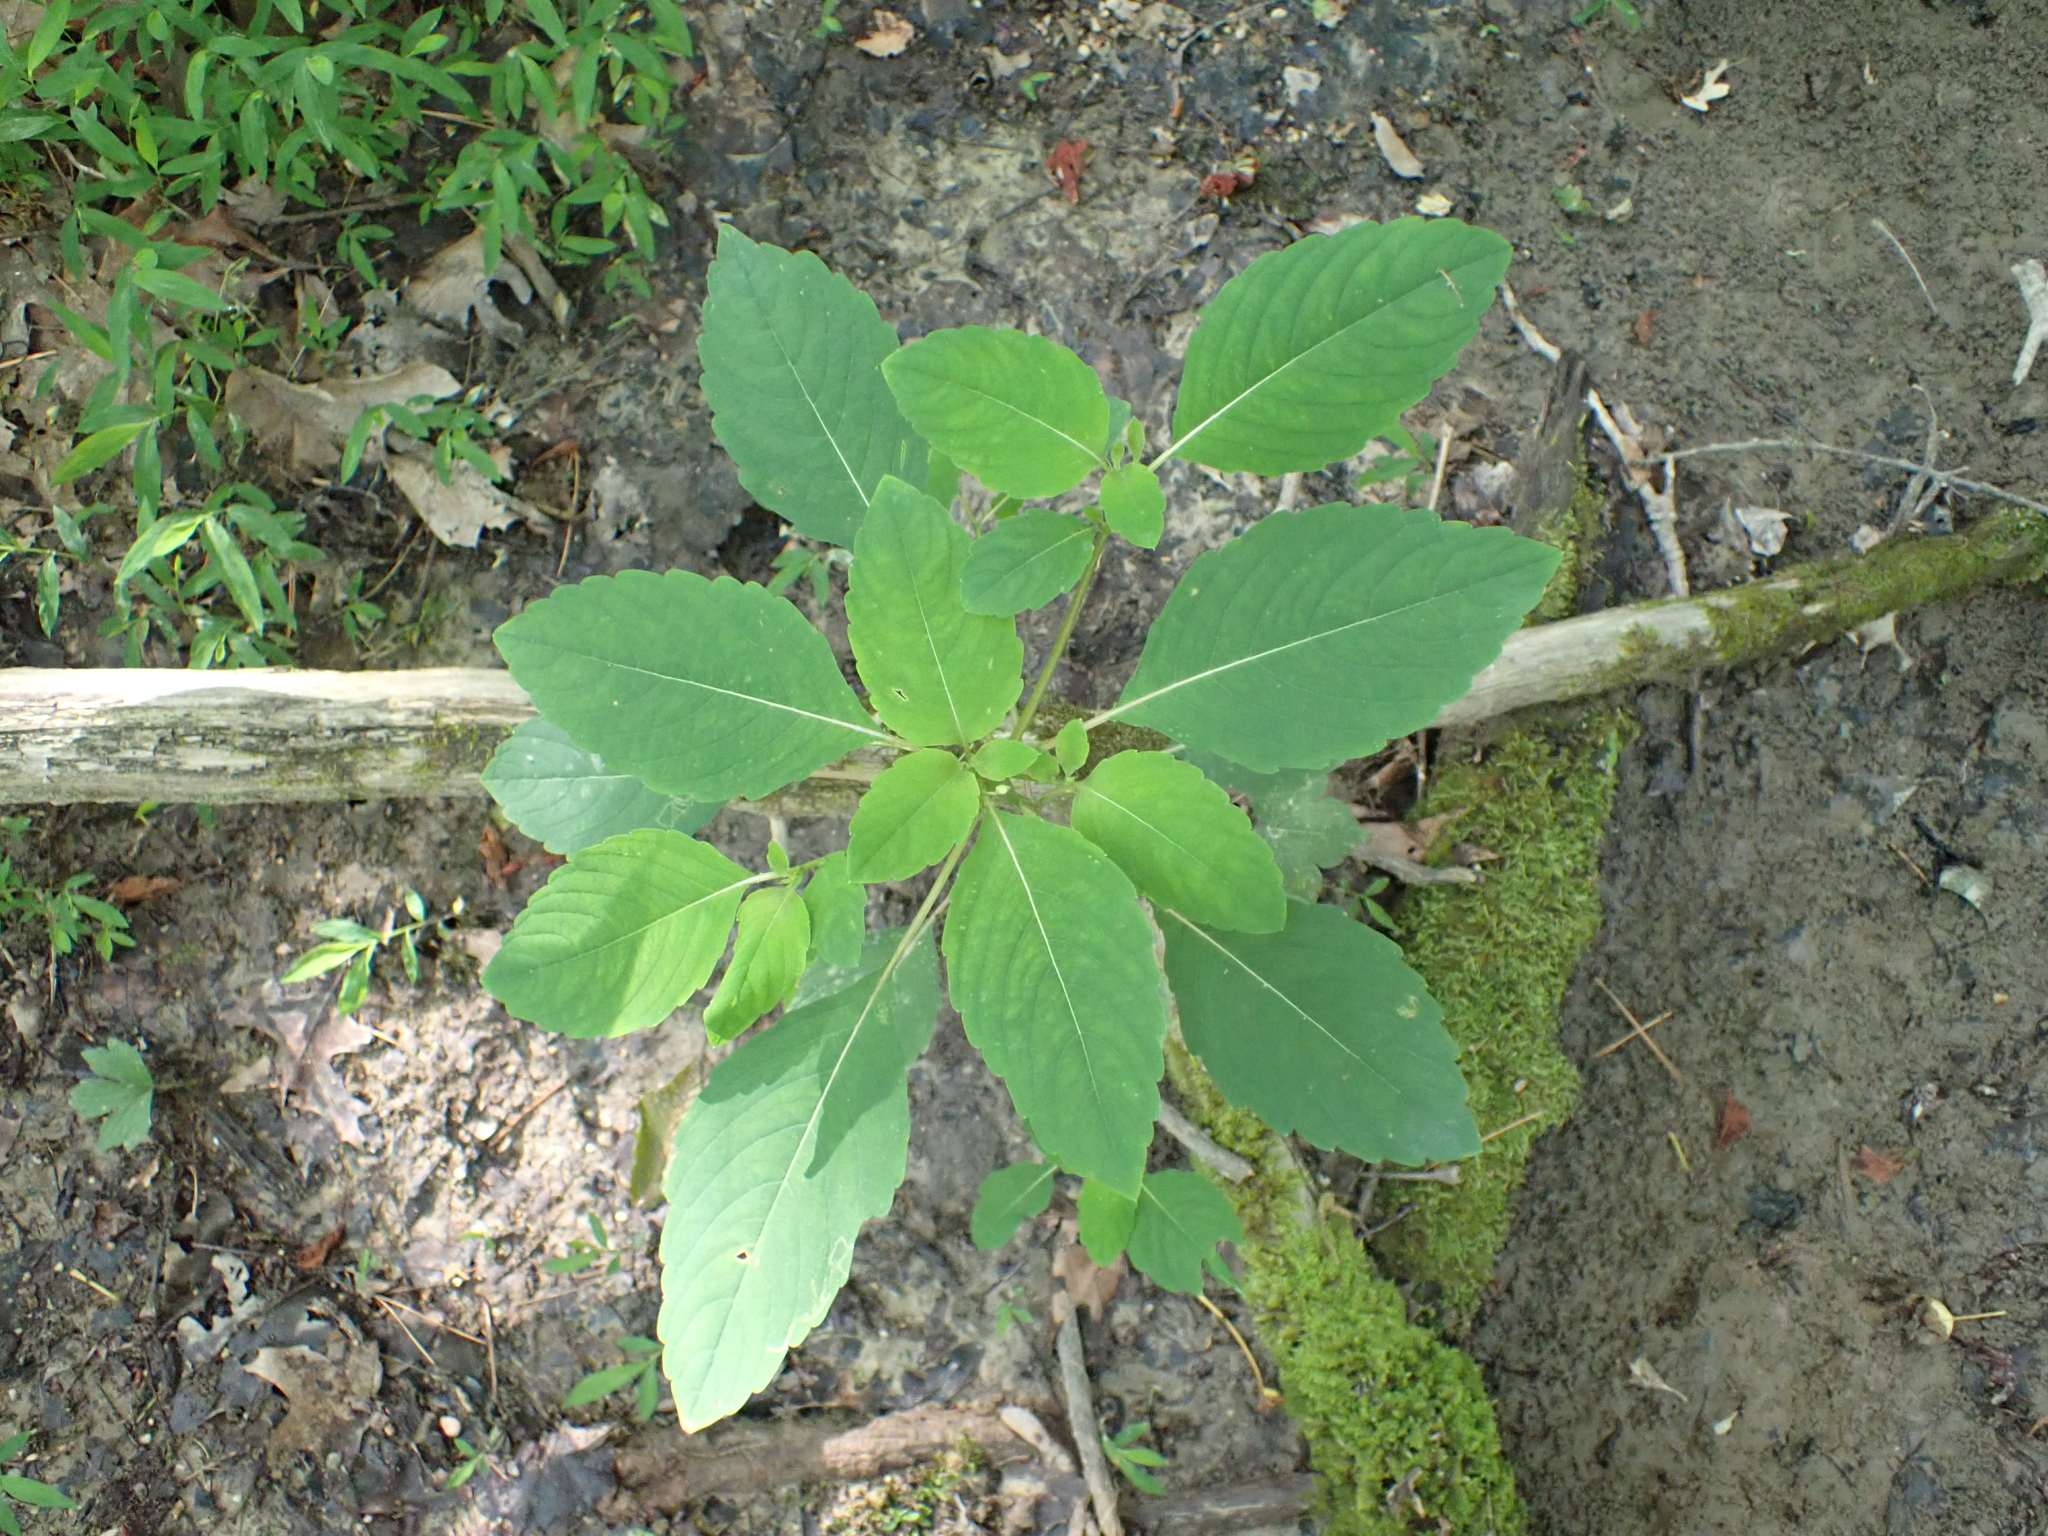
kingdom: Plantae
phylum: Tracheophyta
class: Magnoliopsida
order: Ericales
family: Balsaminaceae
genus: Impatiens
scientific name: Impatiens capensis
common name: Orange balsam
